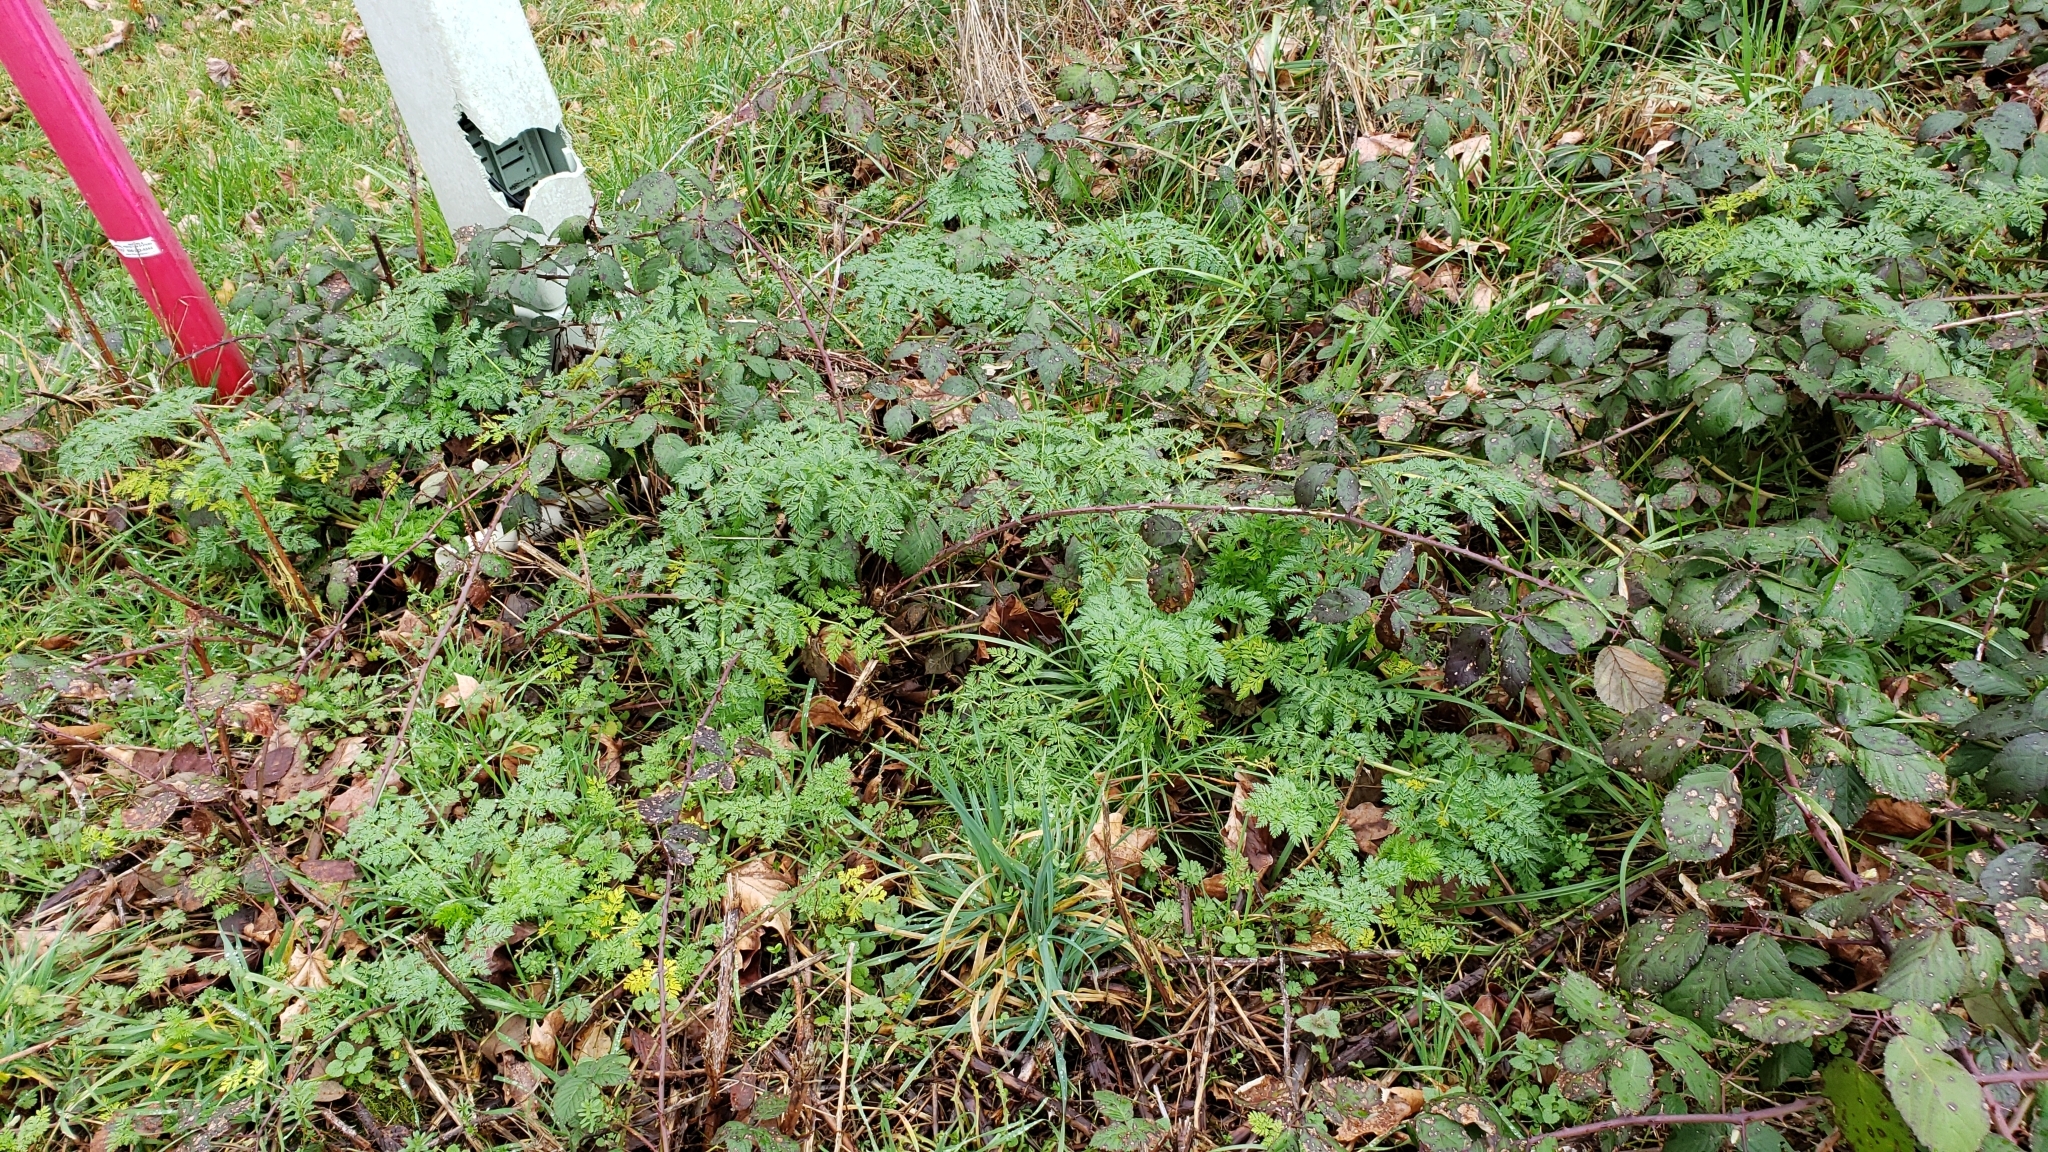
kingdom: Plantae
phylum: Tracheophyta
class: Magnoliopsida
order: Apiales
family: Apiaceae
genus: Conium
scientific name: Conium maculatum
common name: Hemlock
